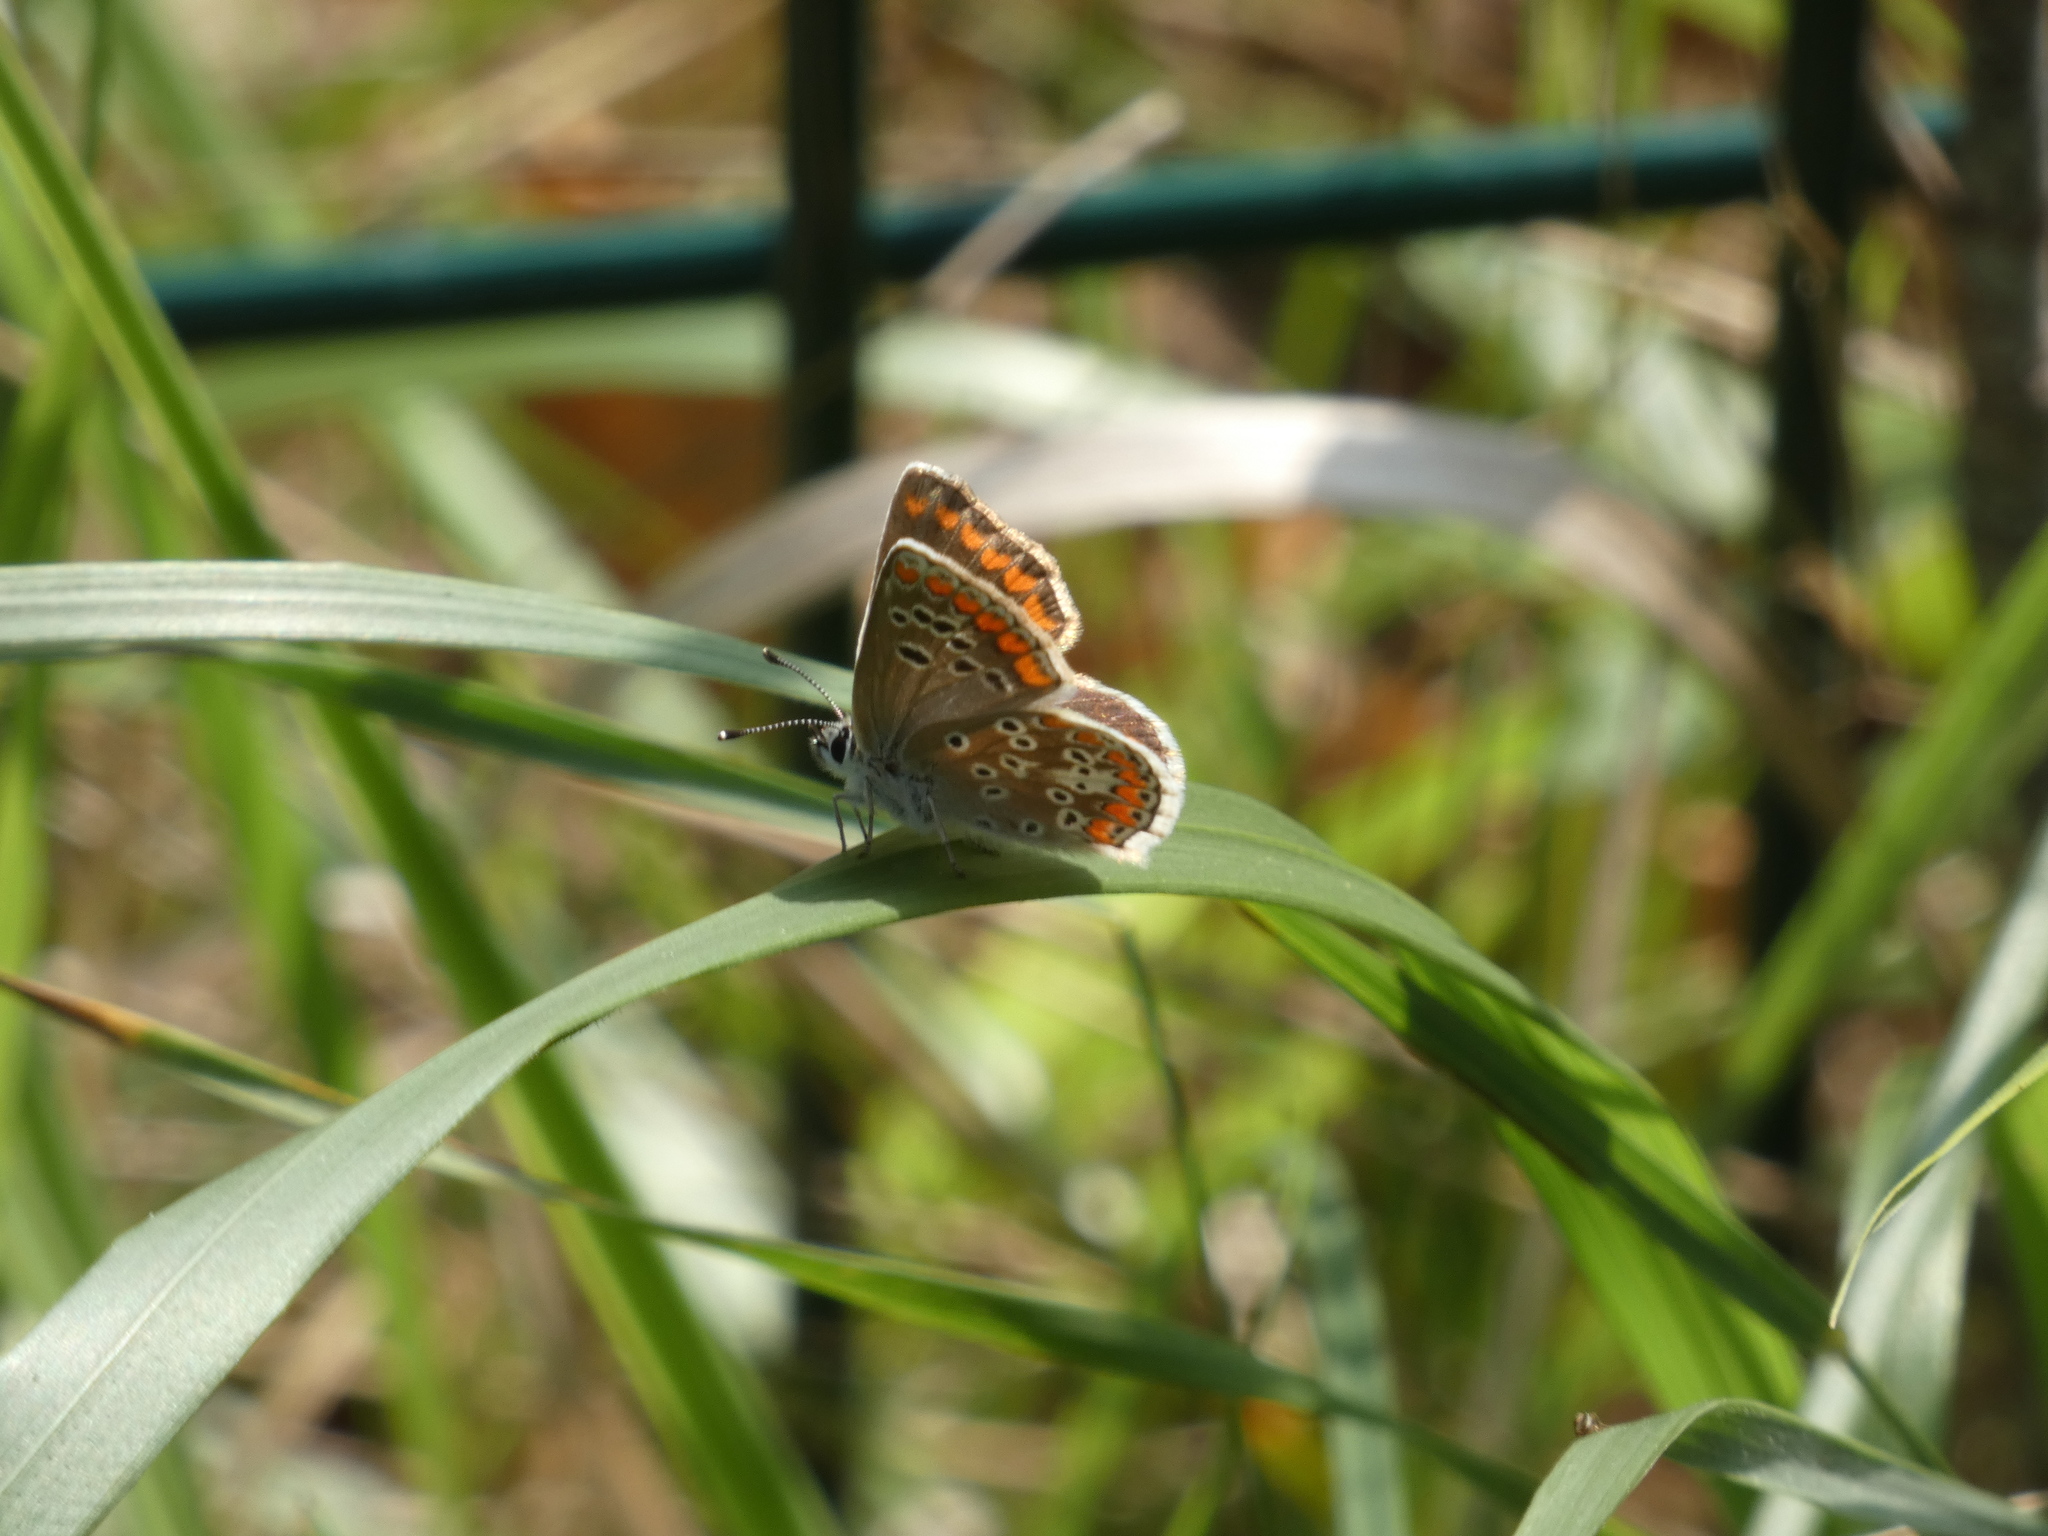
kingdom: Animalia
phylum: Arthropoda
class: Insecta
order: Lepidoptera
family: Lycaenidae
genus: Aricia
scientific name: Aricia agestis
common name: Brown argus
